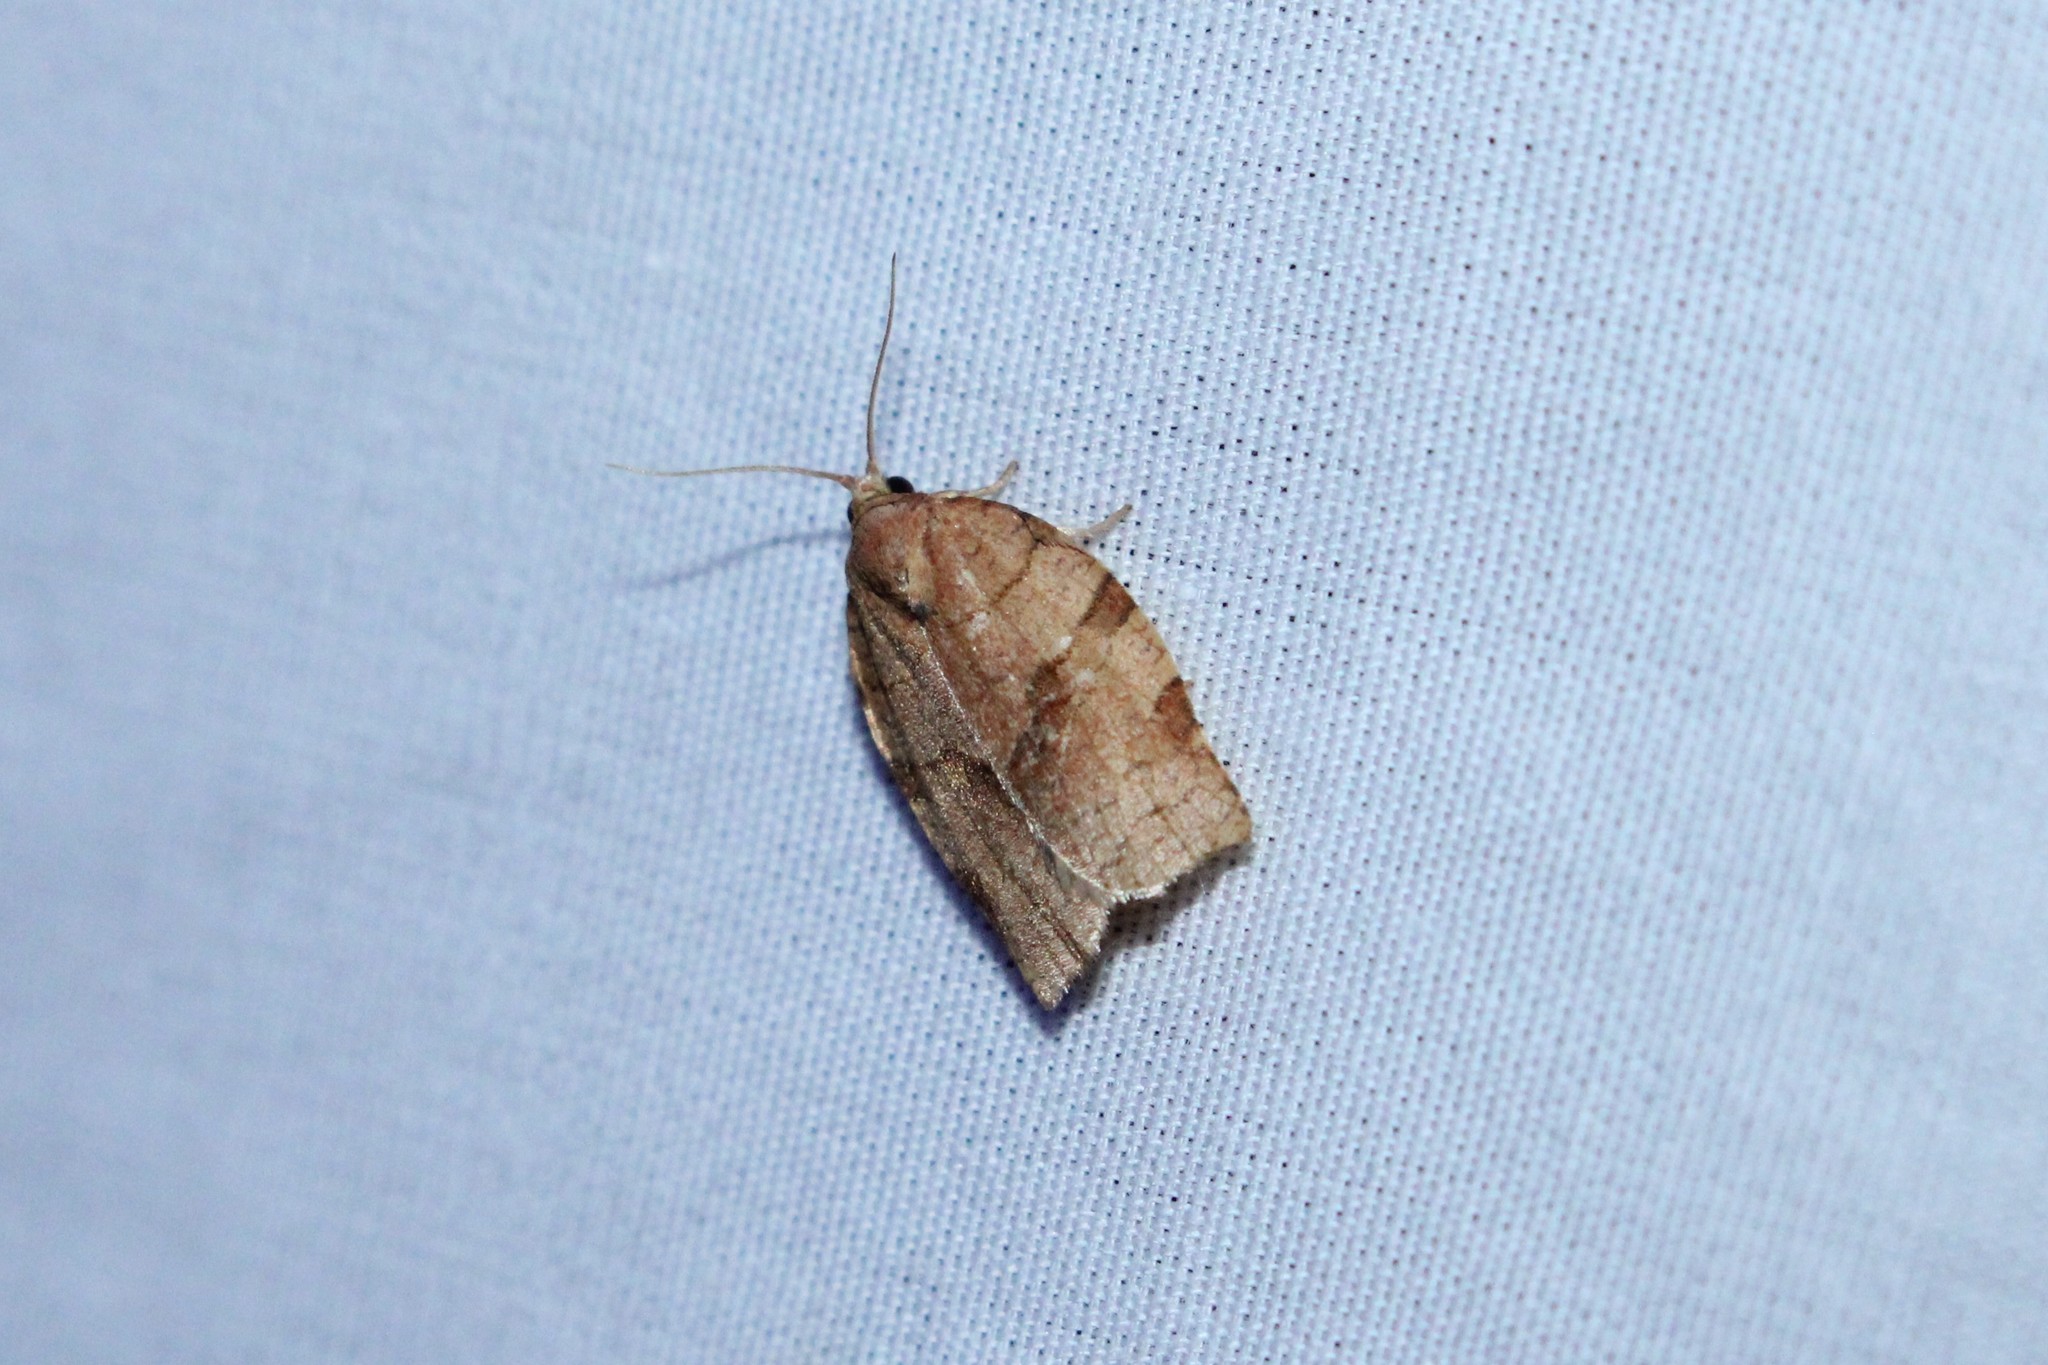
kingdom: Animalia
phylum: Arthropoda
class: Insecta
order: Lepidoptera
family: Tortricidae
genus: Choristoneura
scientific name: Choristoneura rosaceana
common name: Oblique-banded leafroller moth
